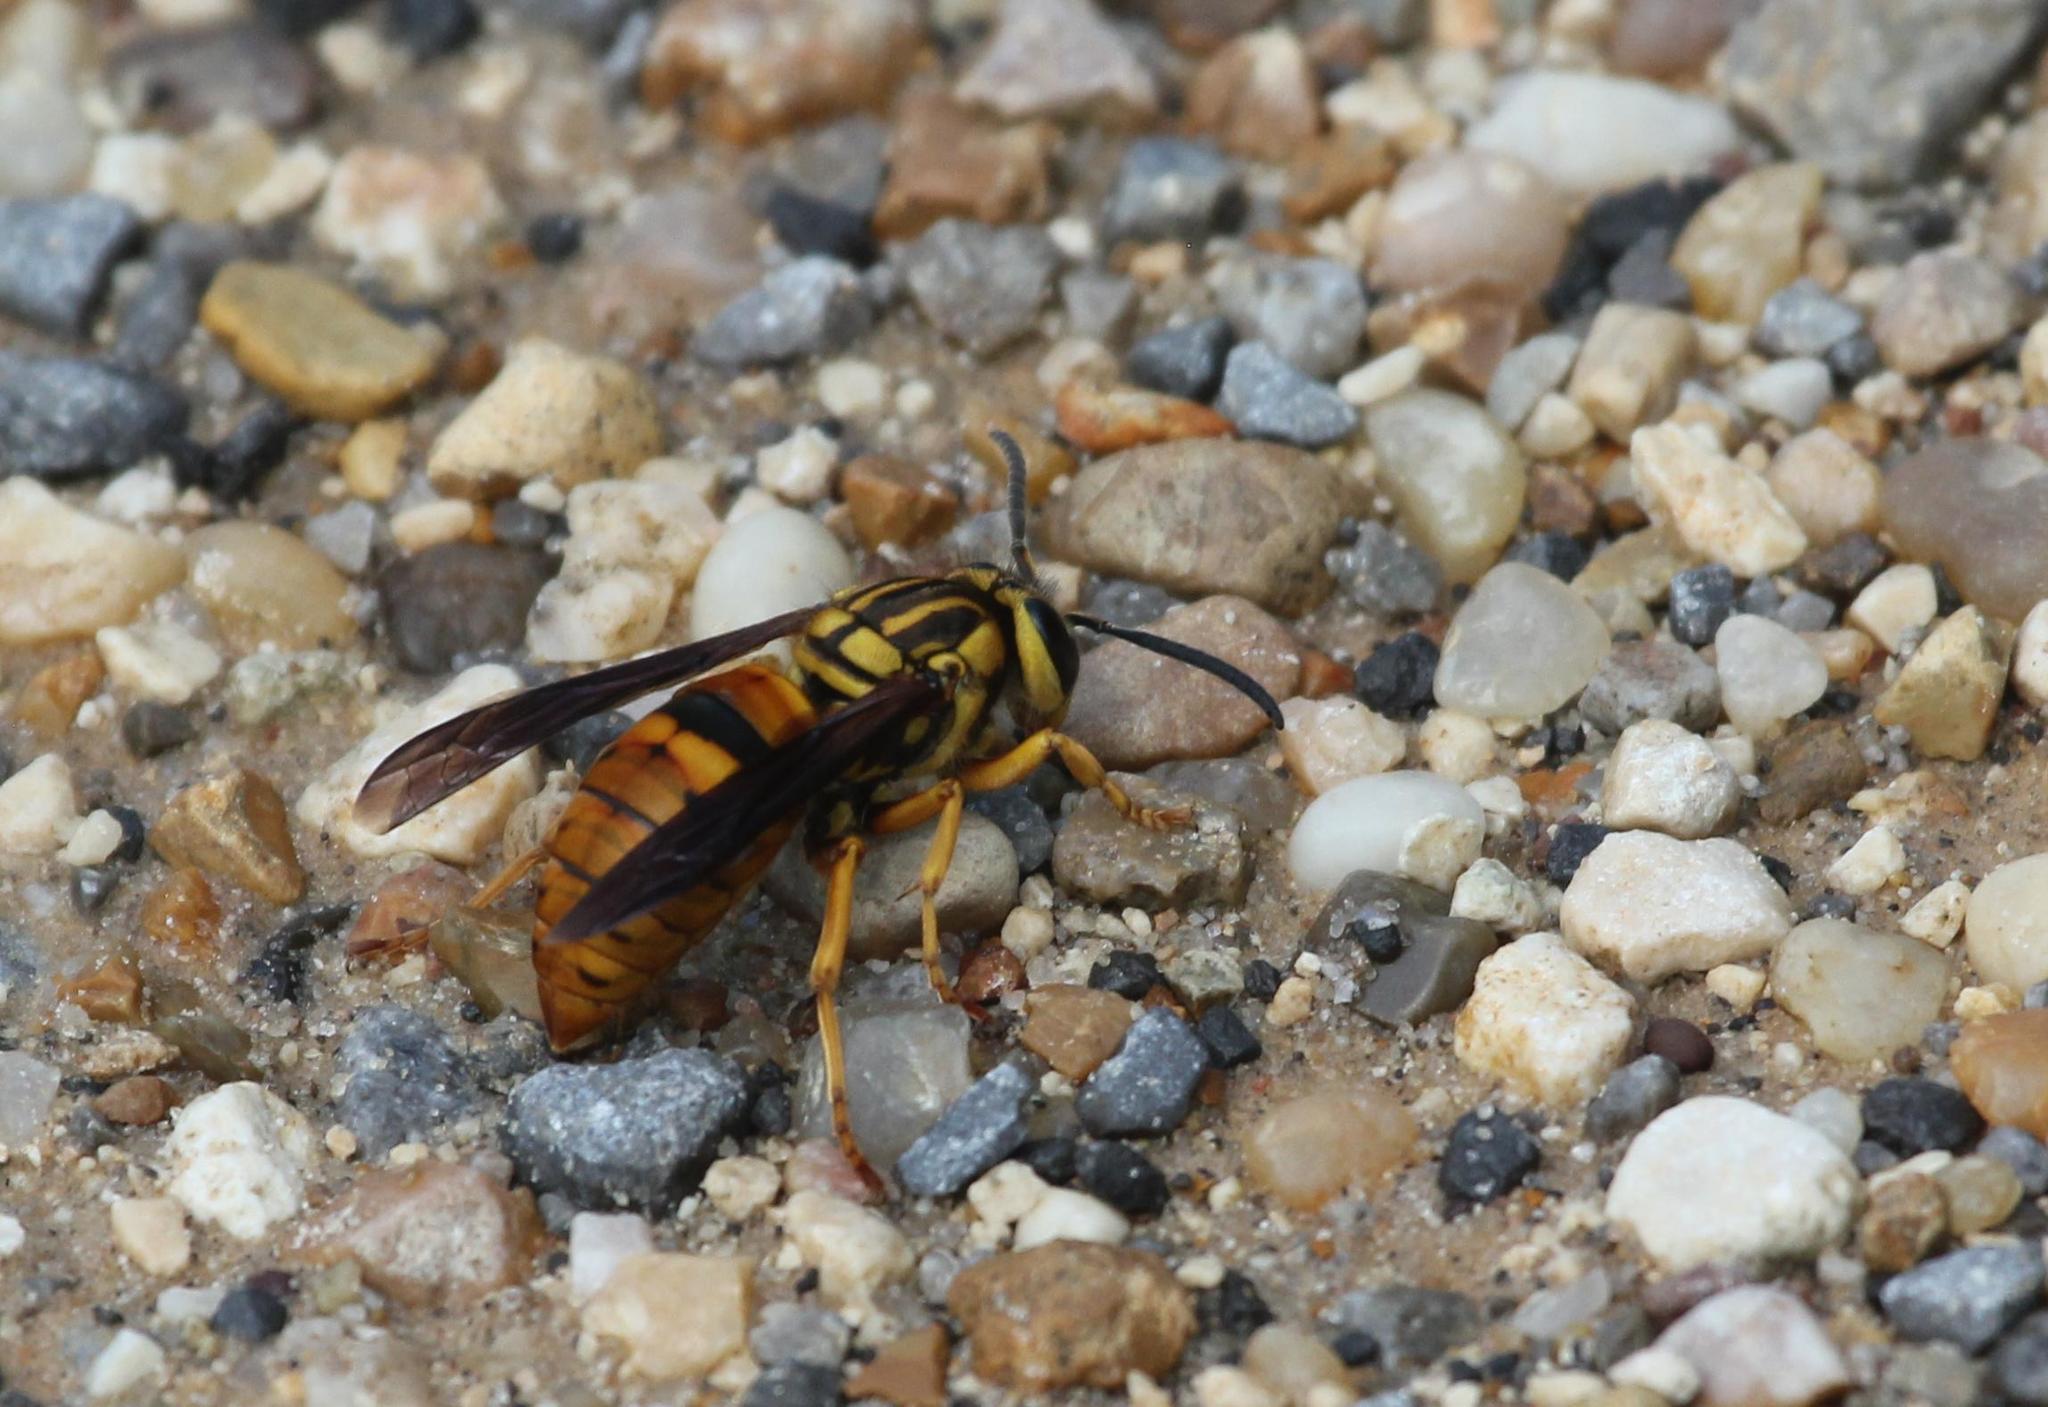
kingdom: Animalia
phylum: Arthropoda
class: Insecta
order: Hymenoptera
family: Vespidae
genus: Vespula
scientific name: Vespula squamosa
